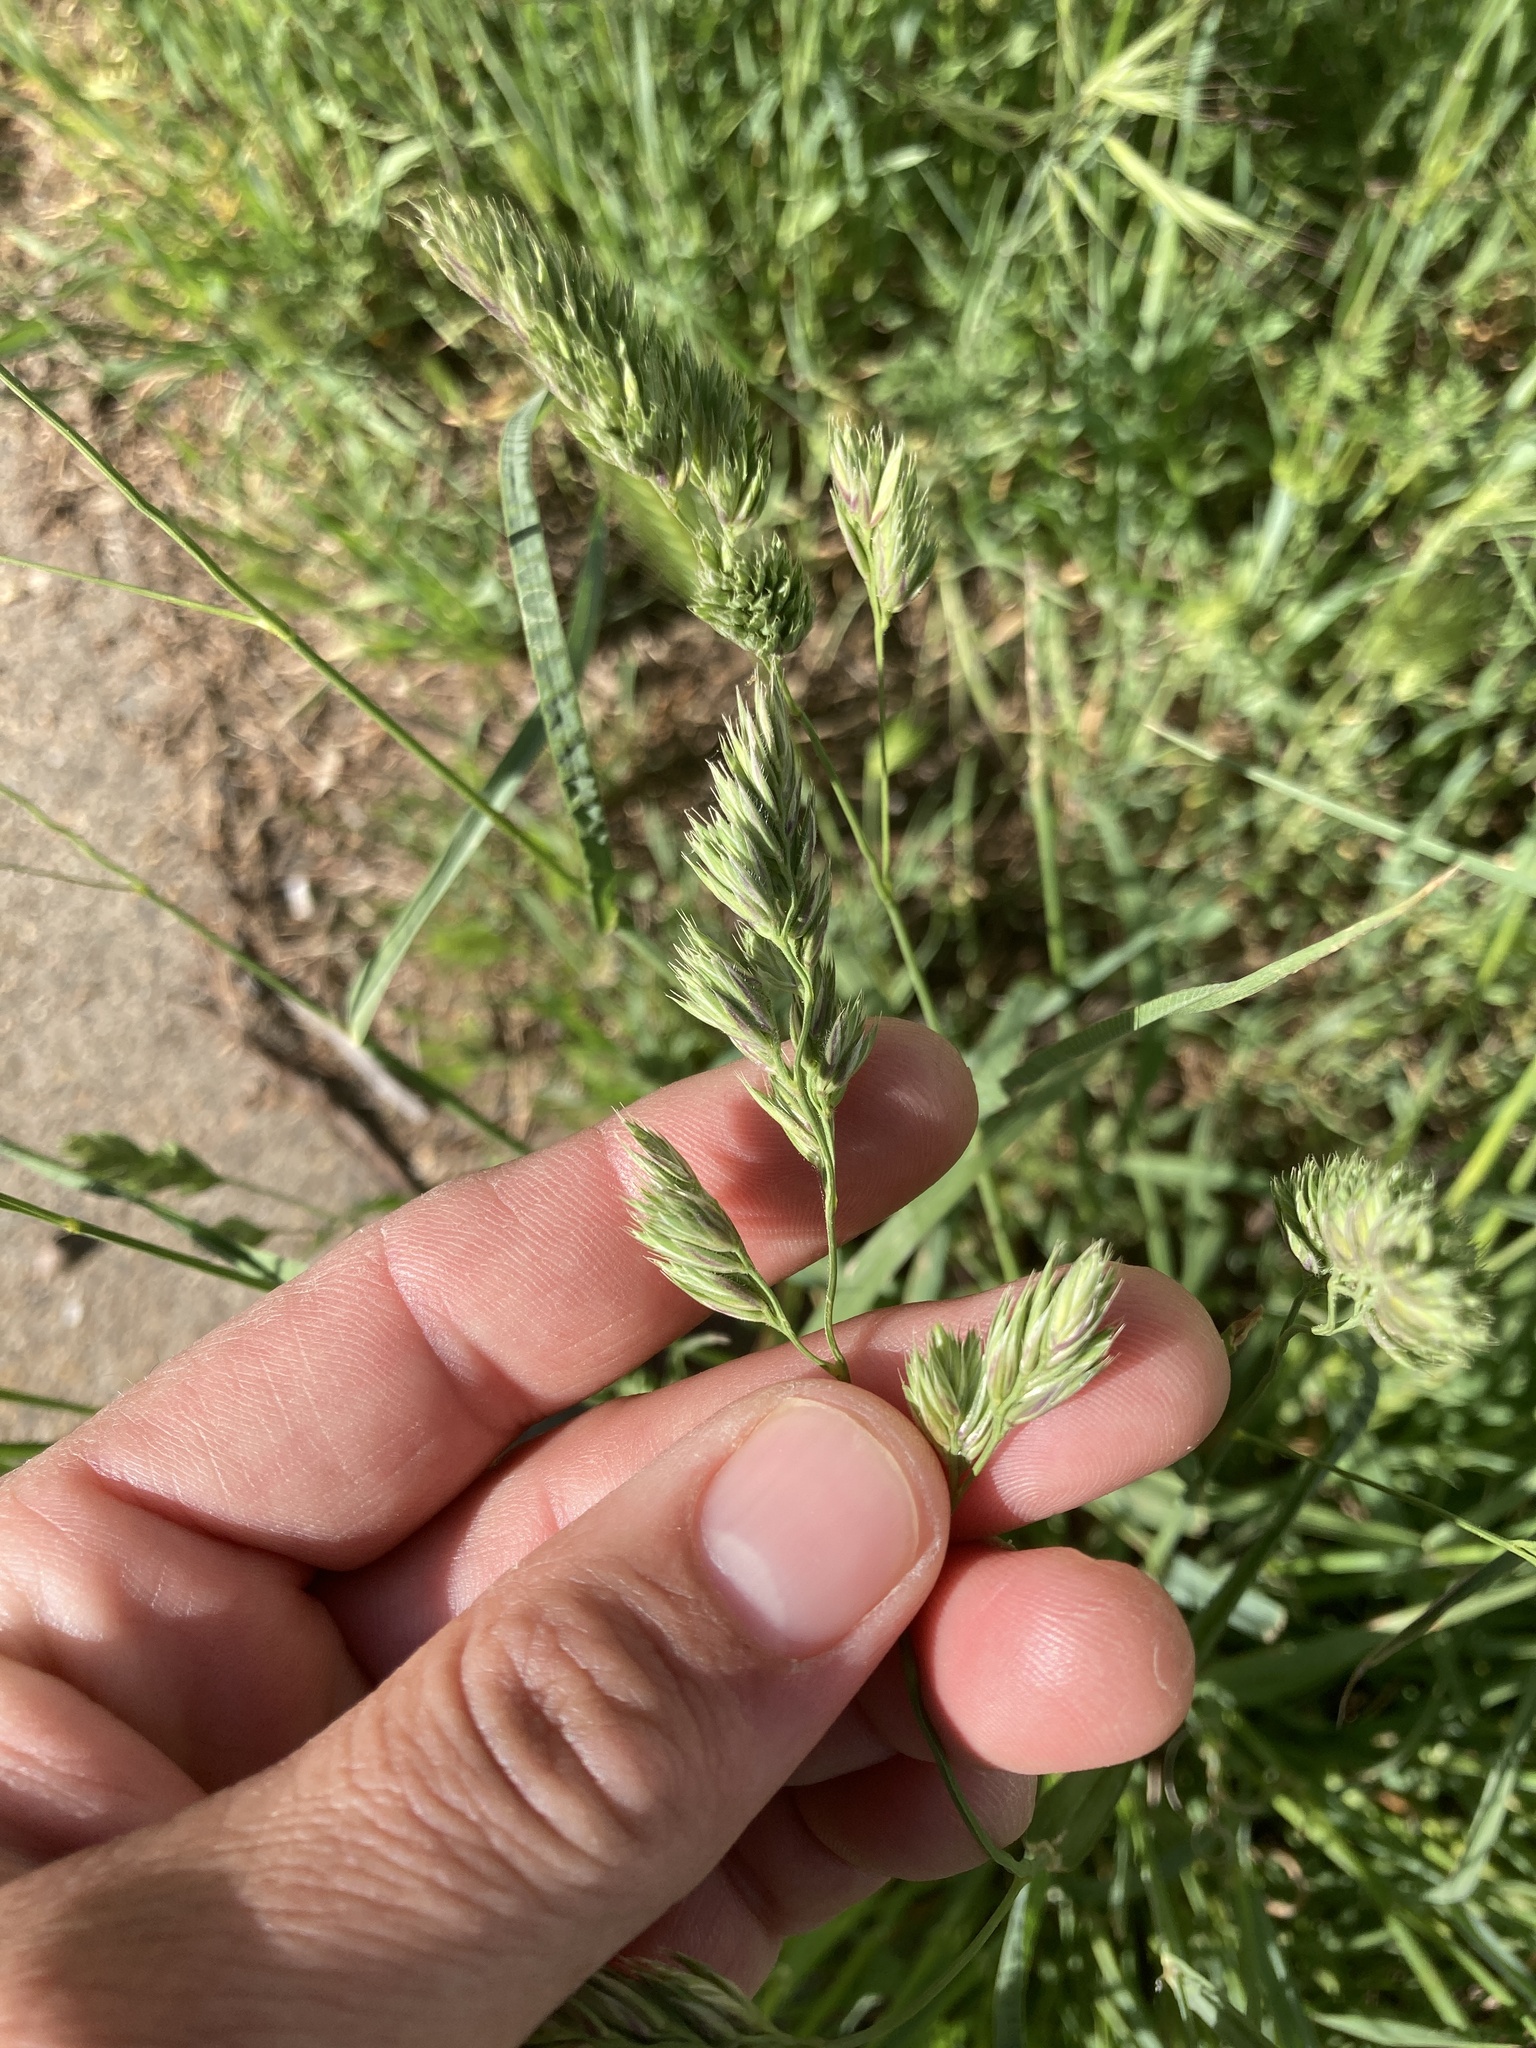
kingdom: Plantae
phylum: Tracheophyta
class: Liliopsida
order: Poales
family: Poaceae
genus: Dactylis
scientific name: Dactylis glomerata
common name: Orchardgrass
